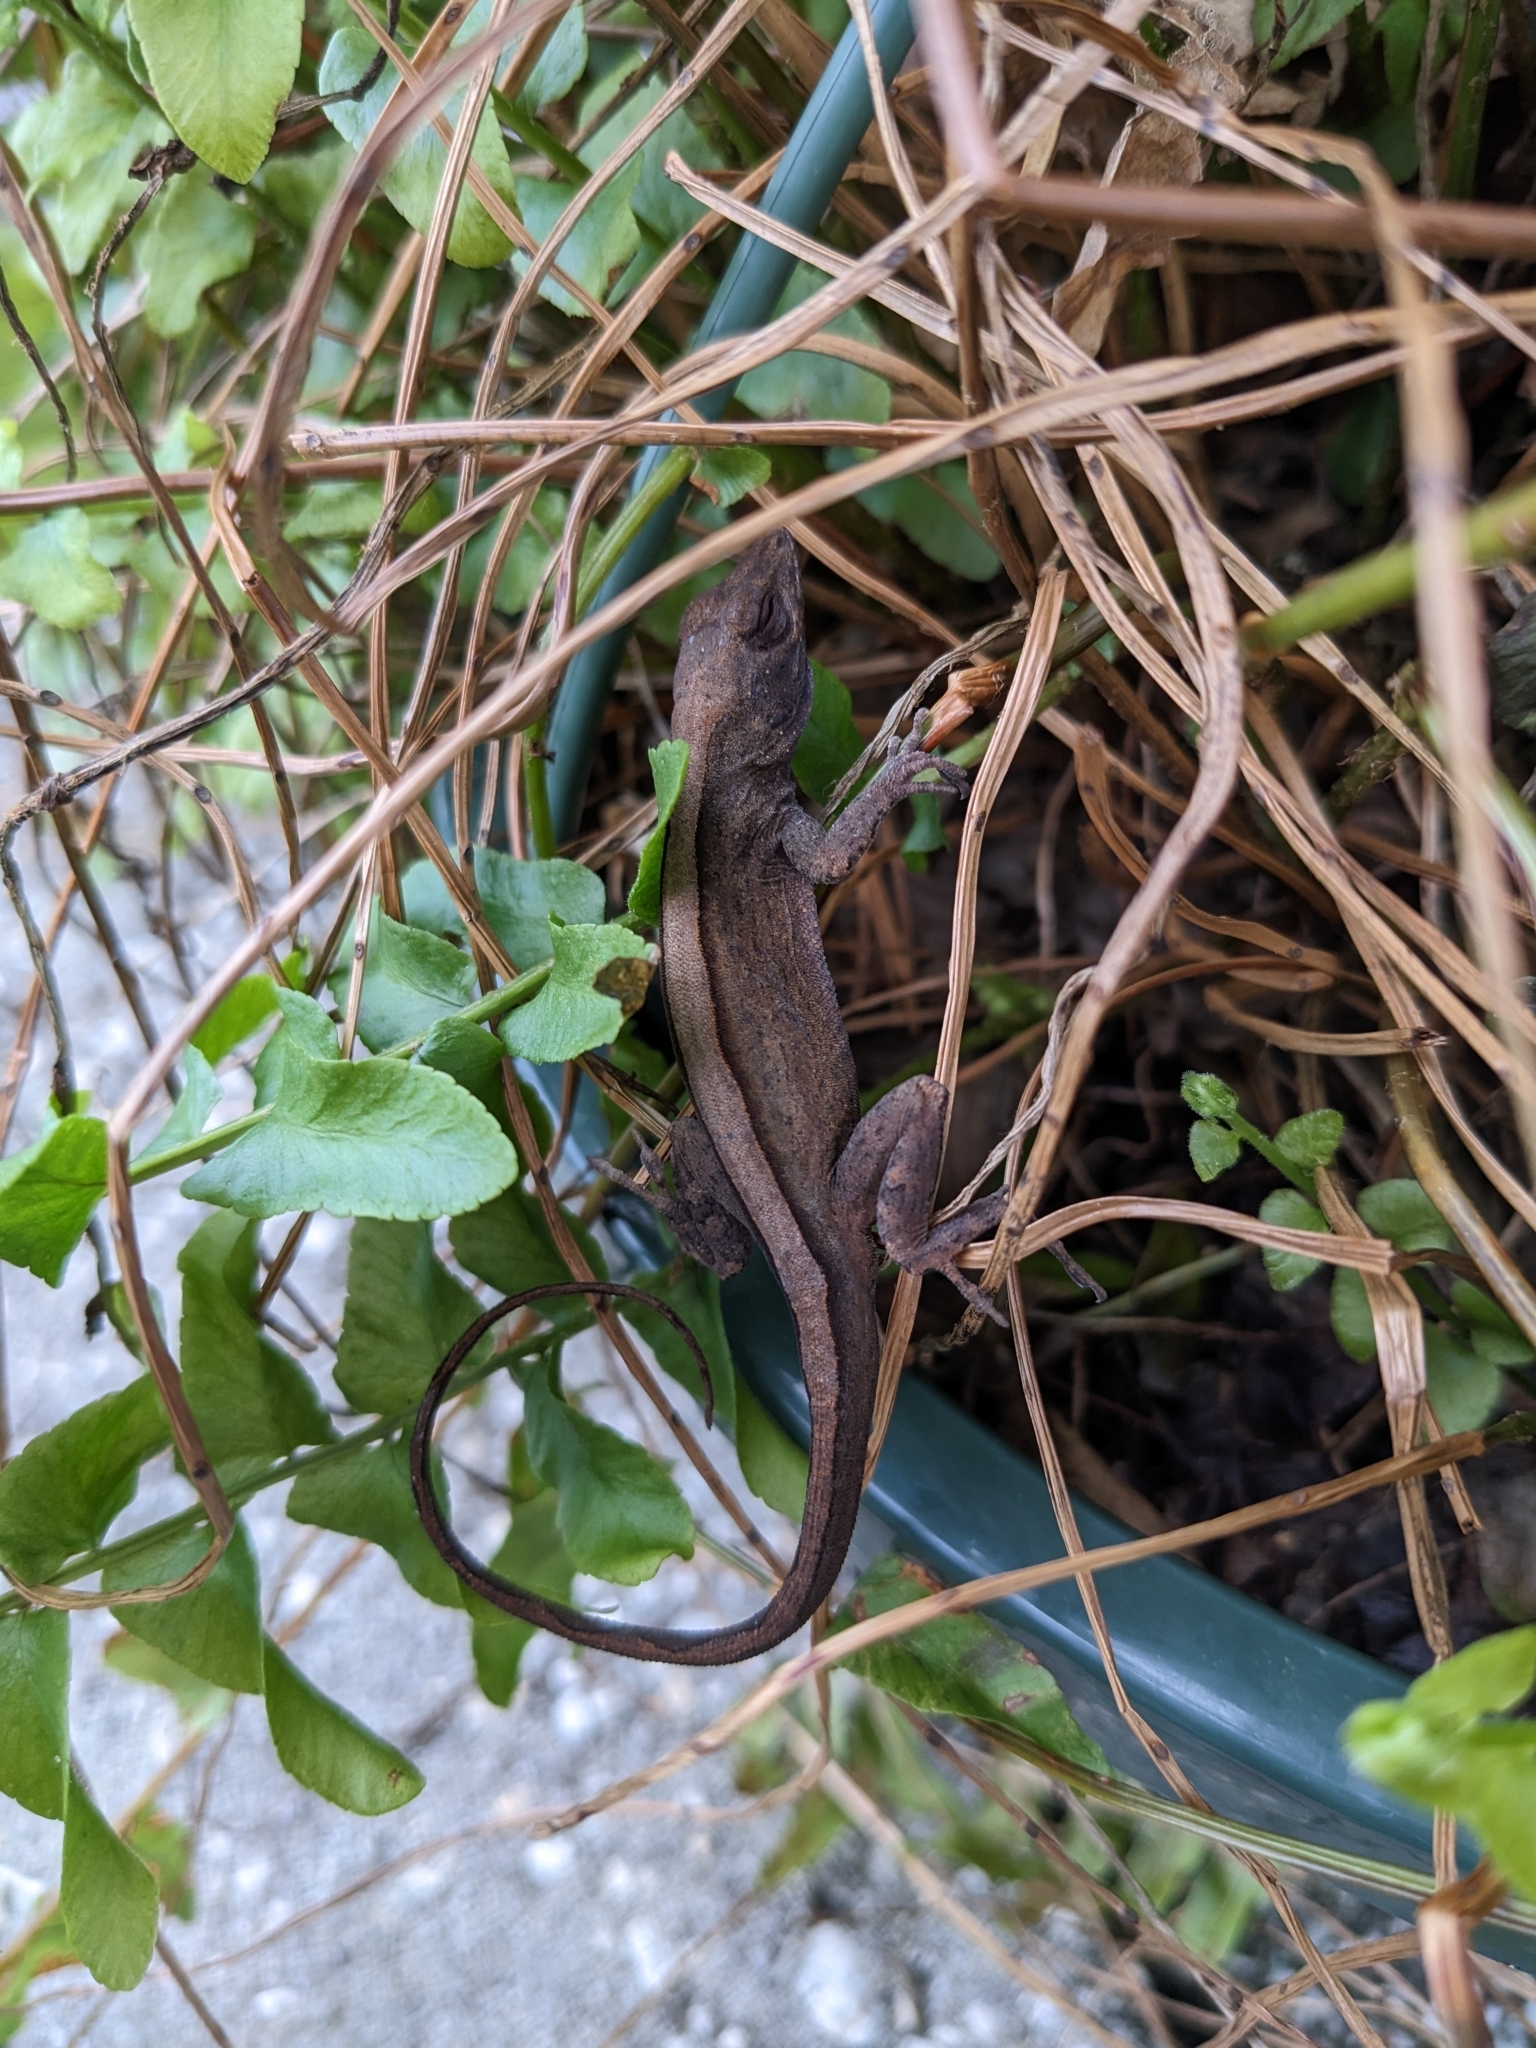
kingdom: Animalia
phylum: Chordata
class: Squamata
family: Dactyloidae
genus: Anolis
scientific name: Anolis sagrei
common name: Brown anole
